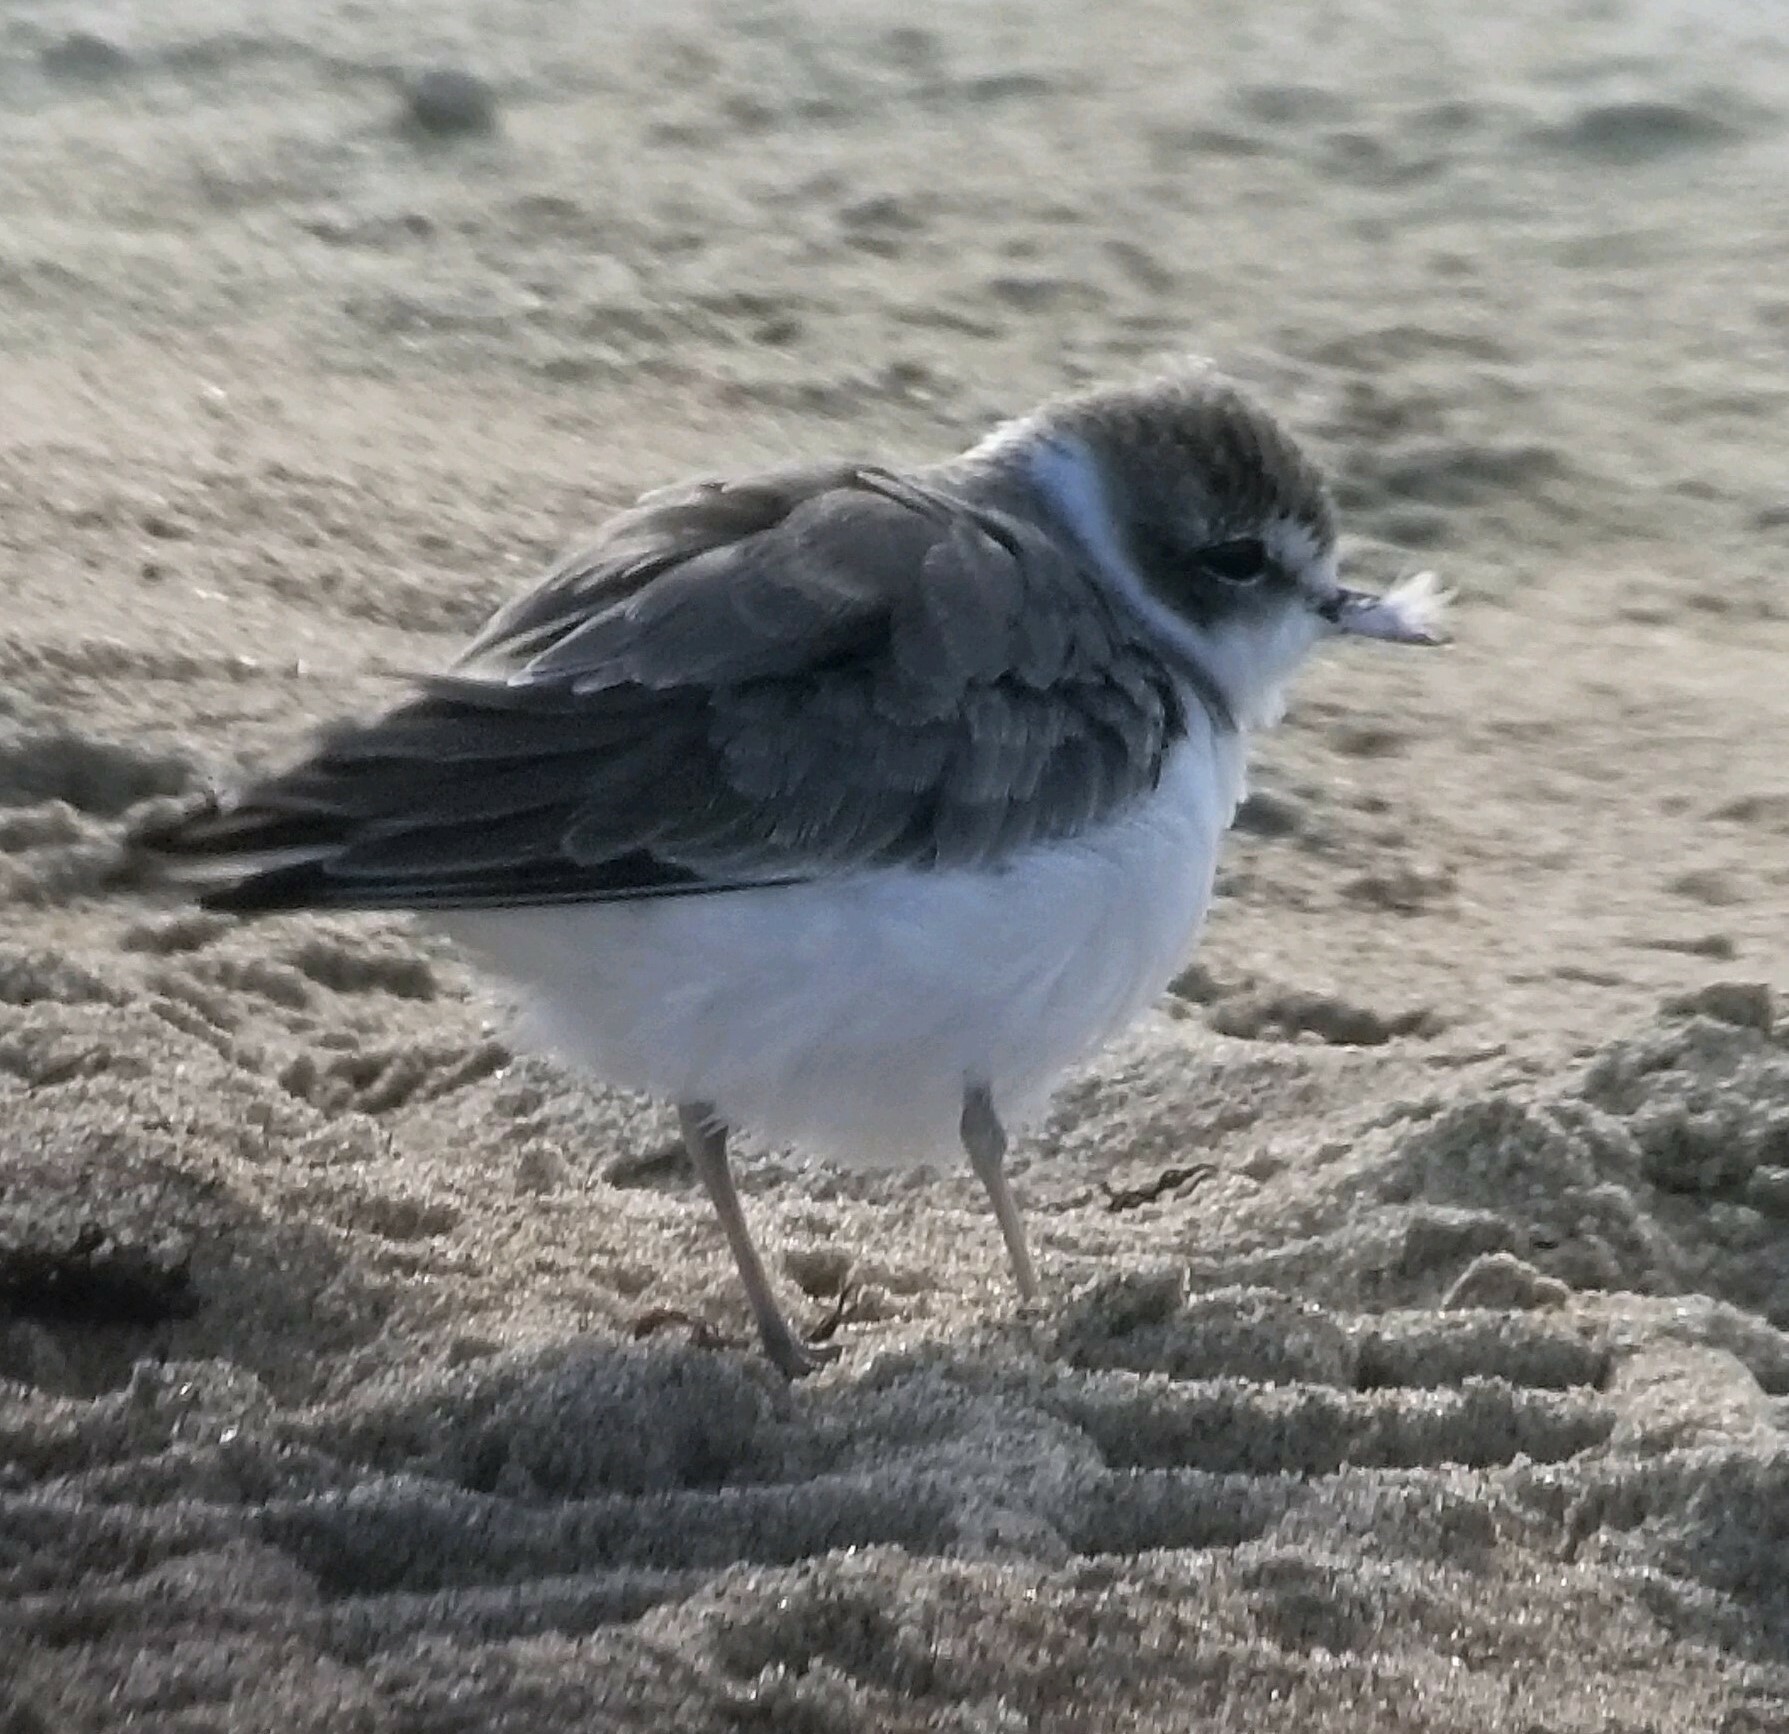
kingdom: Animalia
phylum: Chordata
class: Aves
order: Charadriiformes
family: Charadriidae
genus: Anarhynchus
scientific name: Anarhynchus
